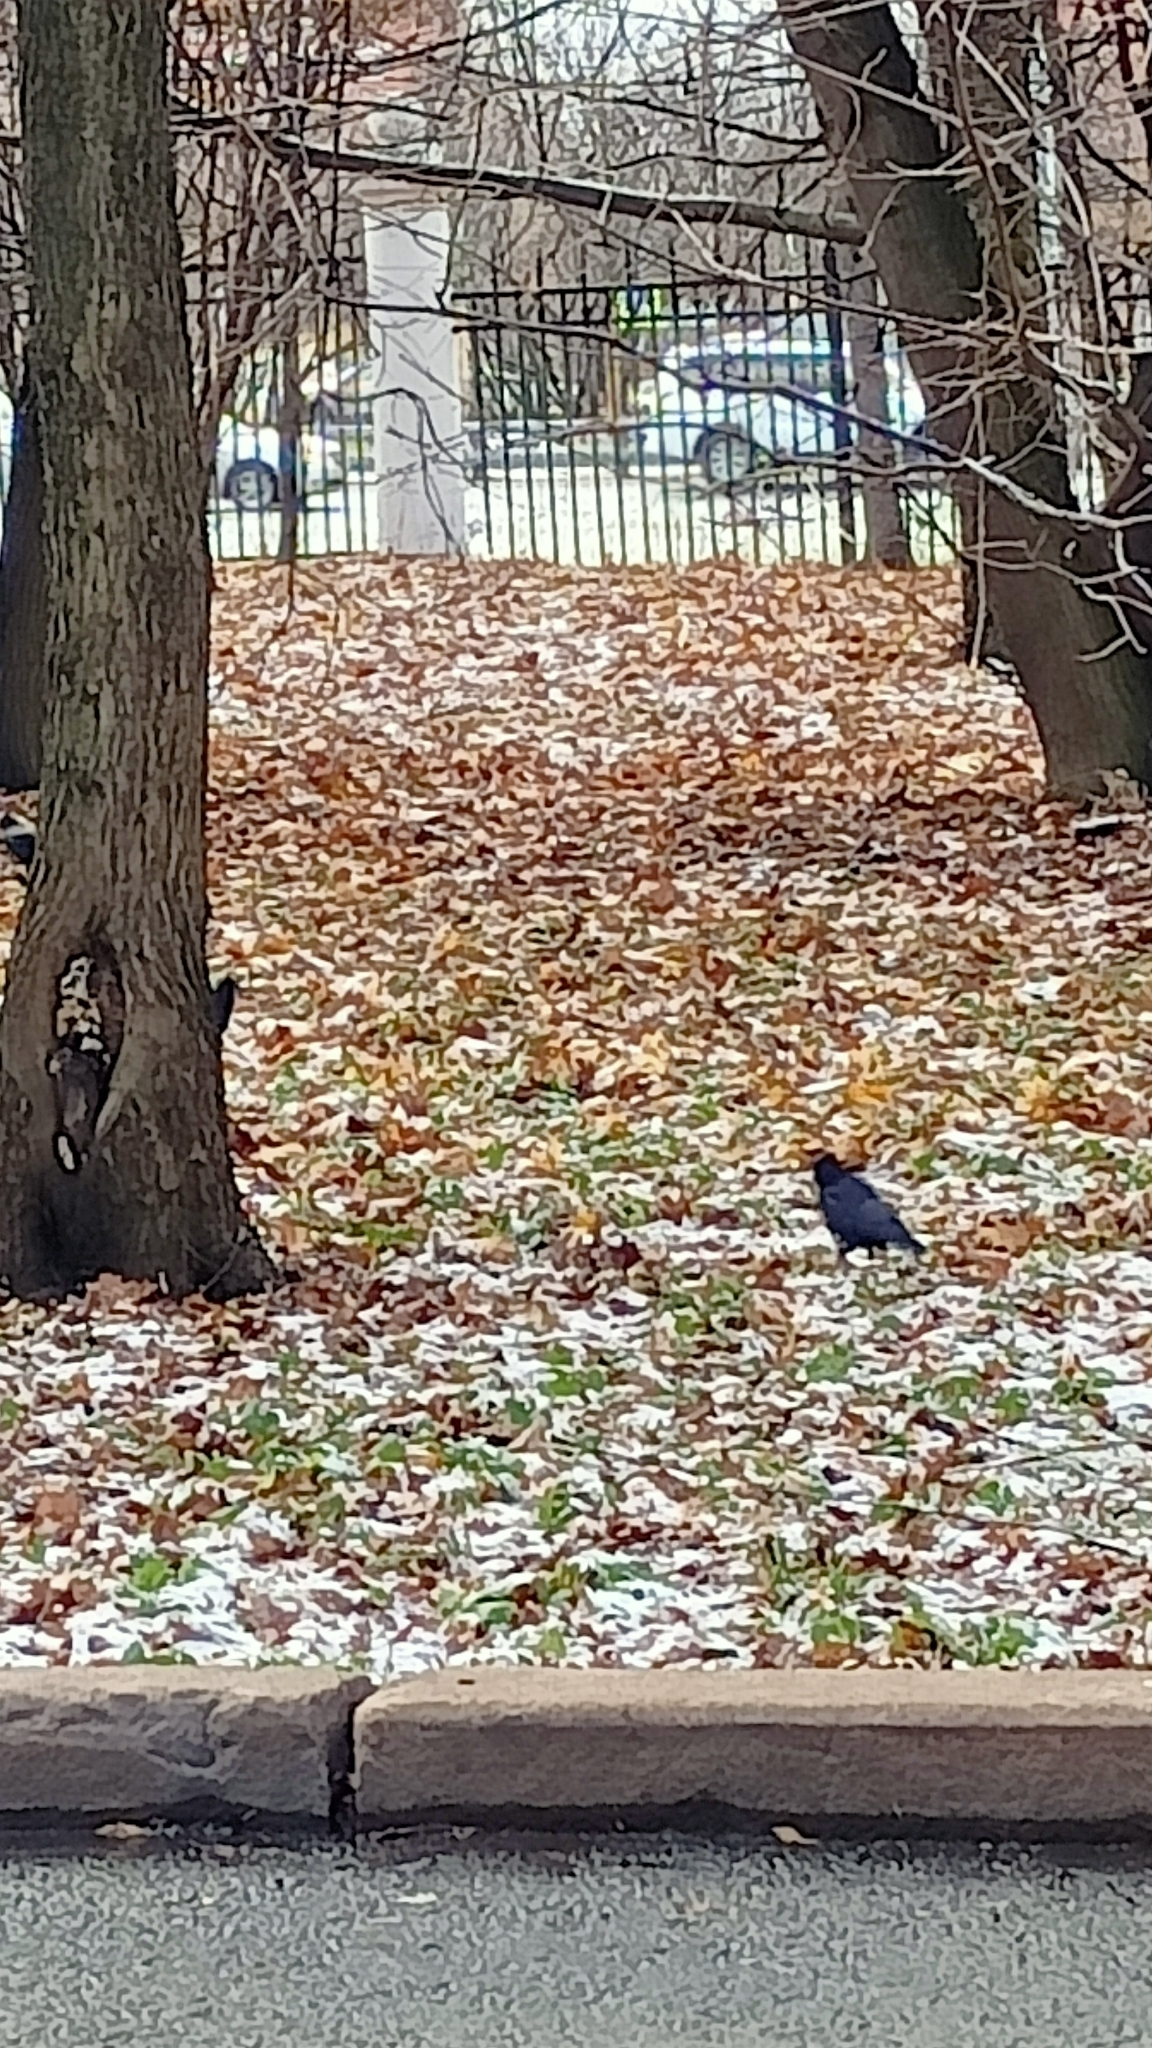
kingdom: Animalia
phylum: Chordata
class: Aves
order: Passeriformes
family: Corvidae
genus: Corvus
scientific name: Corvus frugilegus
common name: Rook
